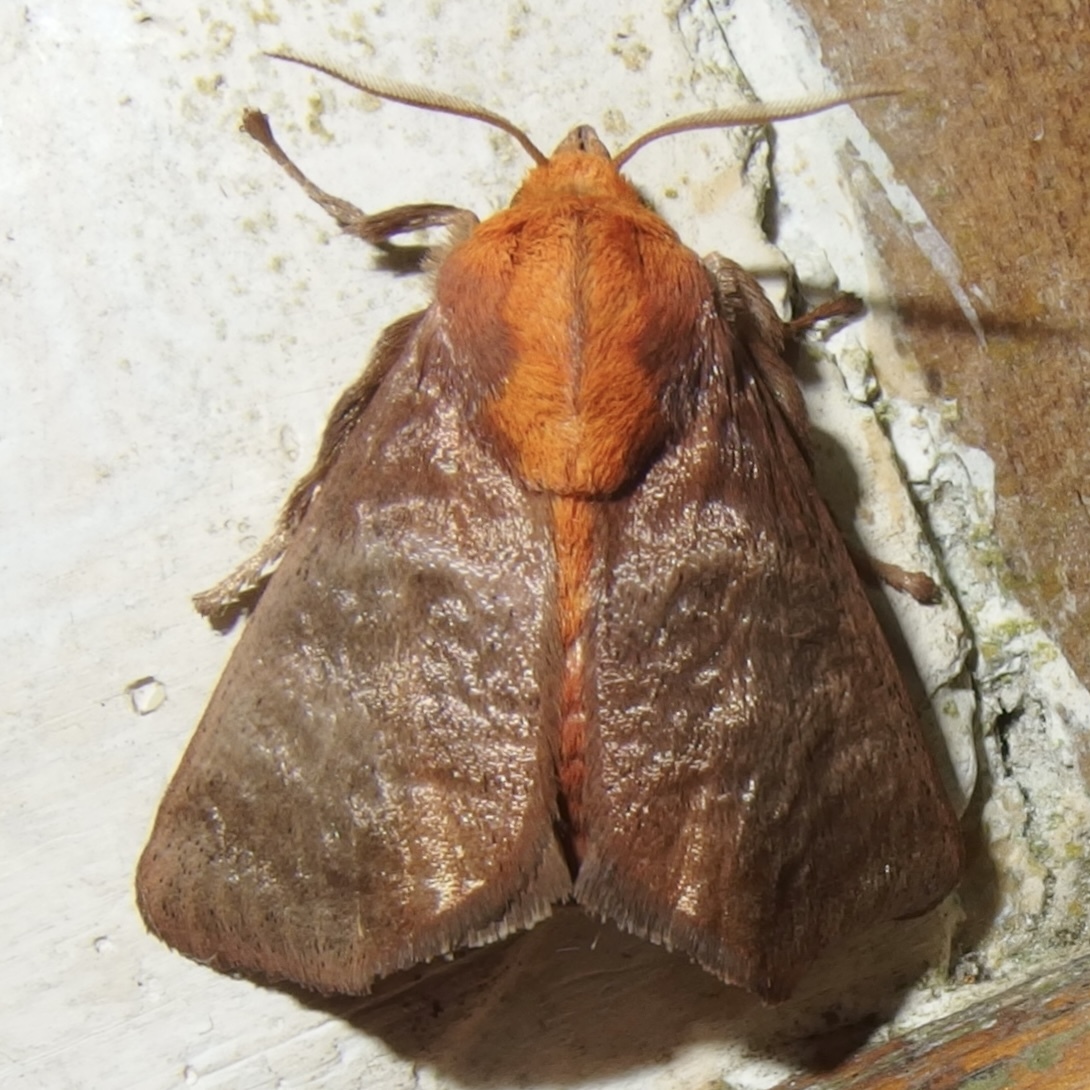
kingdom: Animalia
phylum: Arthropoda
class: Insecta
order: Lepidoptera
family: Limacodidae
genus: Natada
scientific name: Natada incandescens
